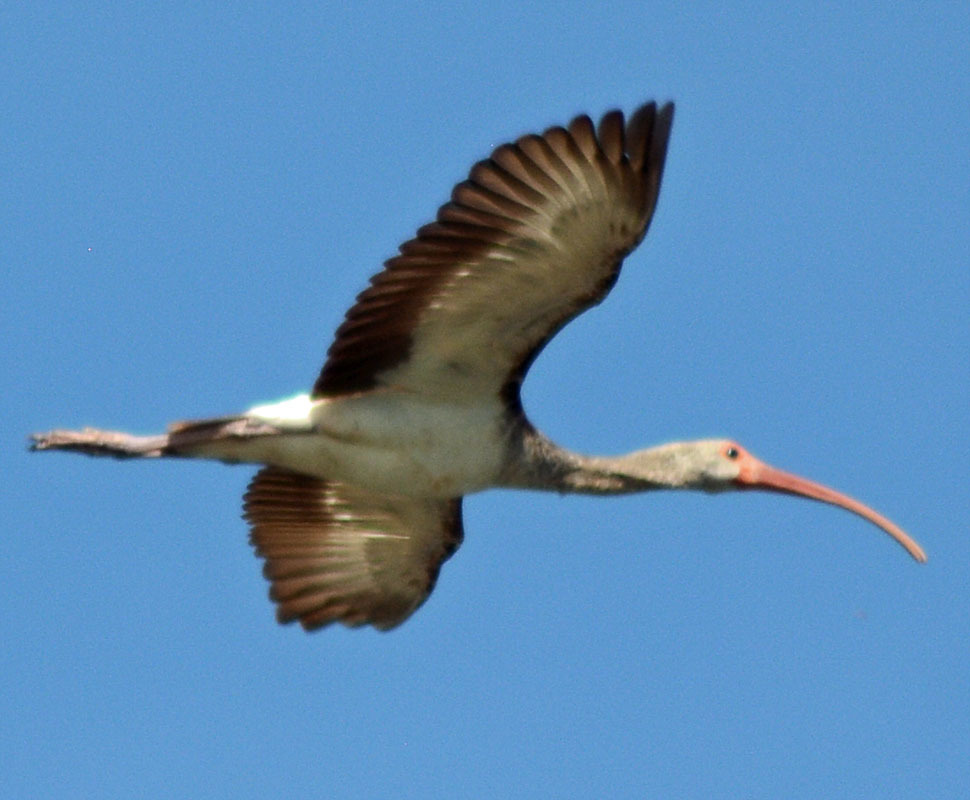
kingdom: Animalia
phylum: Chordata
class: Aves
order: Pelecaniformes
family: Threskiornithidae
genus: Eudocimus
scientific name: Eudocimus albus
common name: White ibis
